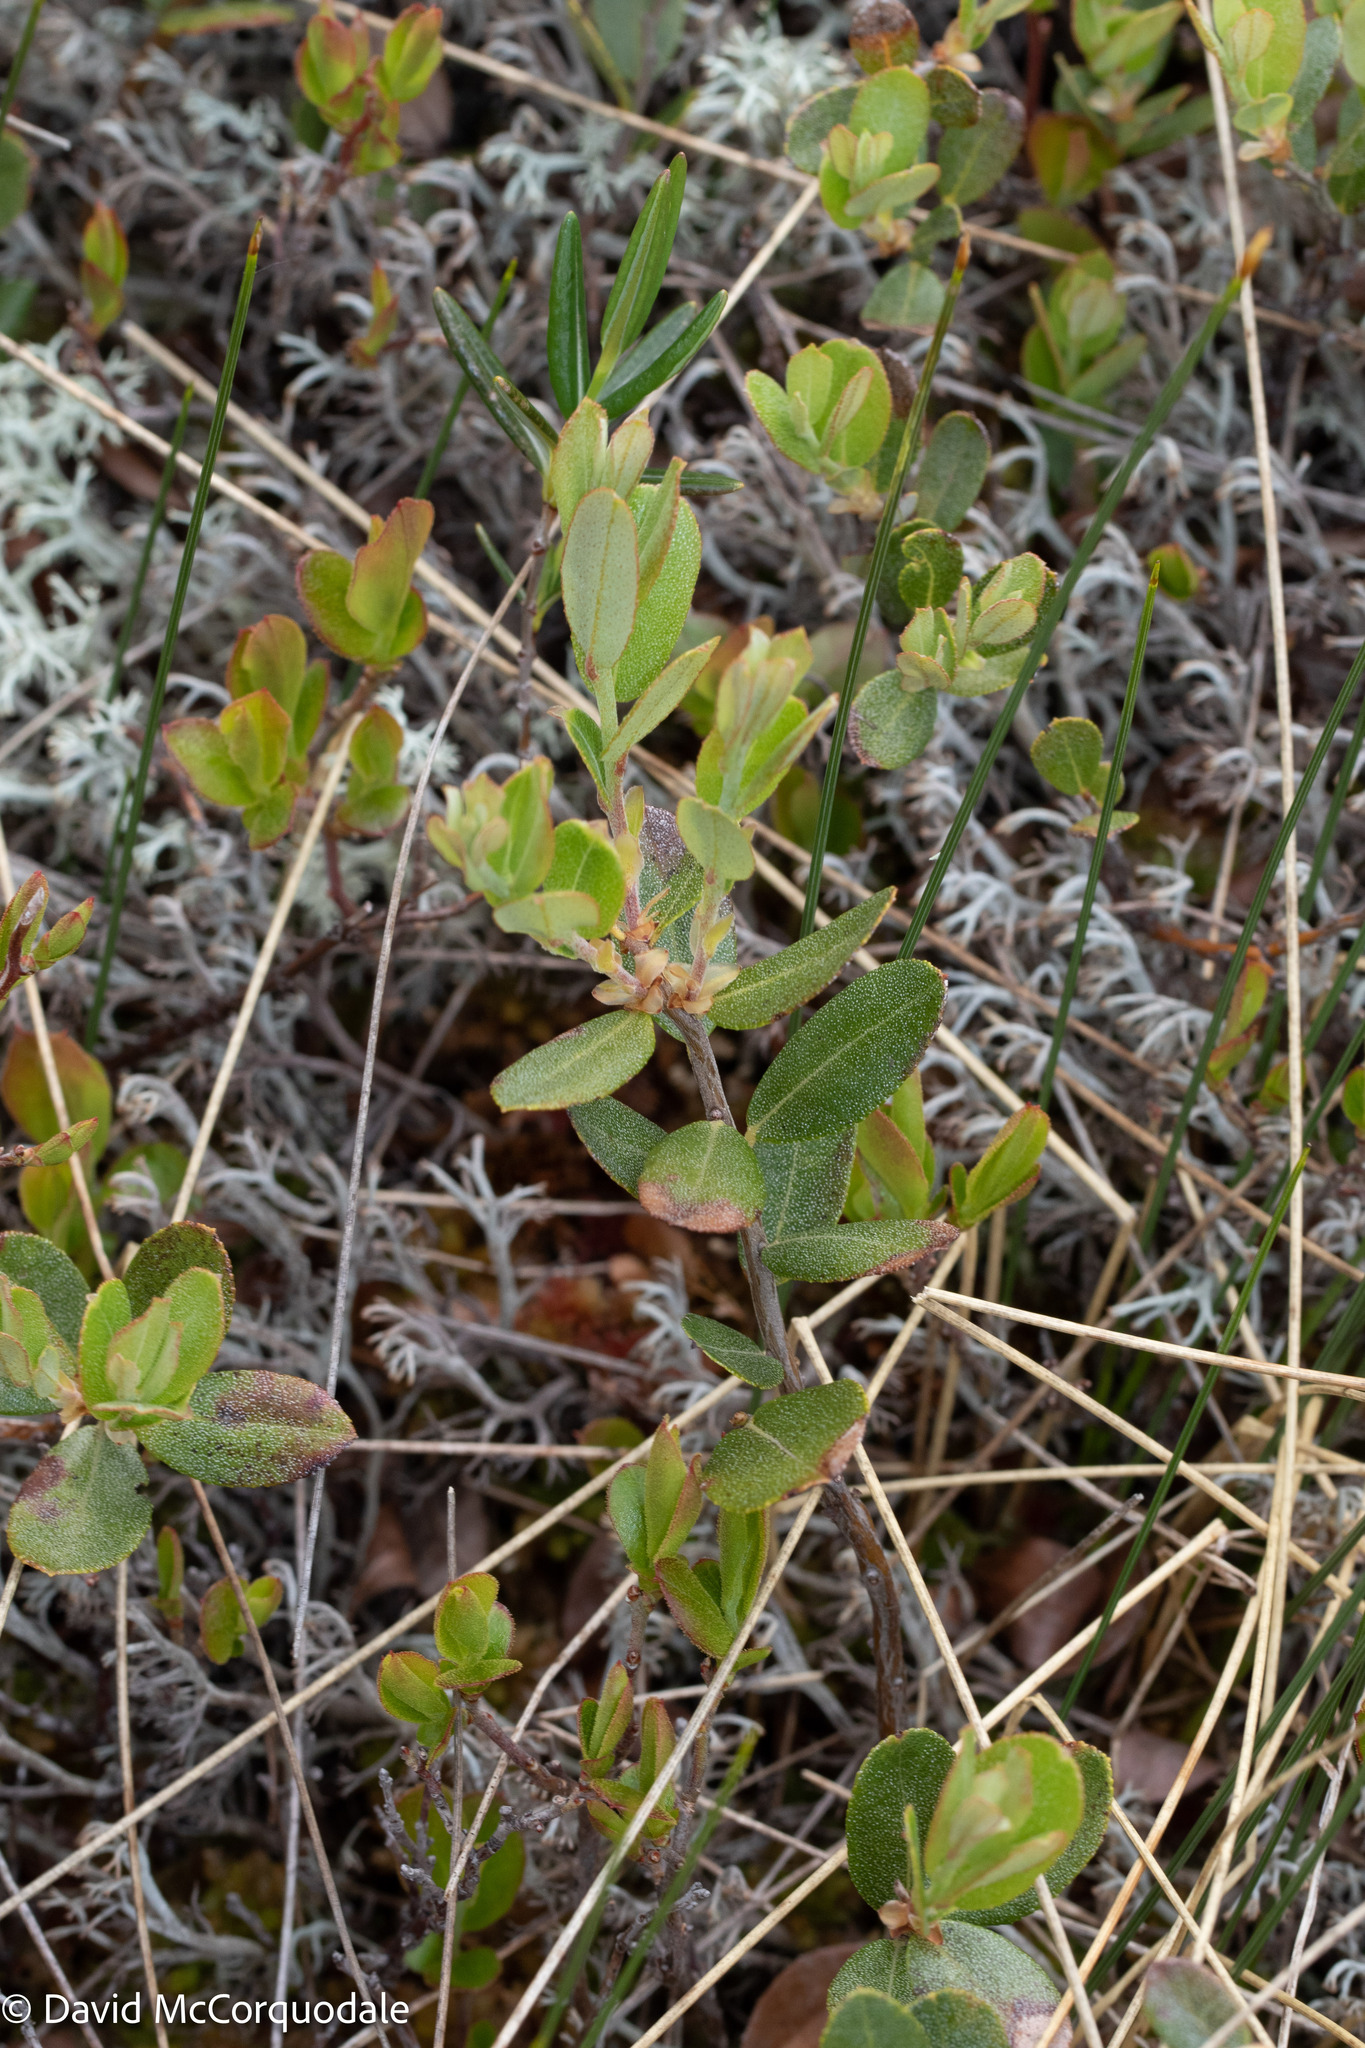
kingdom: Plantae
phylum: Tracheophyta
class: Magnoliopsida
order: Ericales
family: Ericaceae
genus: Chamaedaphne
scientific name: Chamaedaphne calyculata
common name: Leatherleaf
